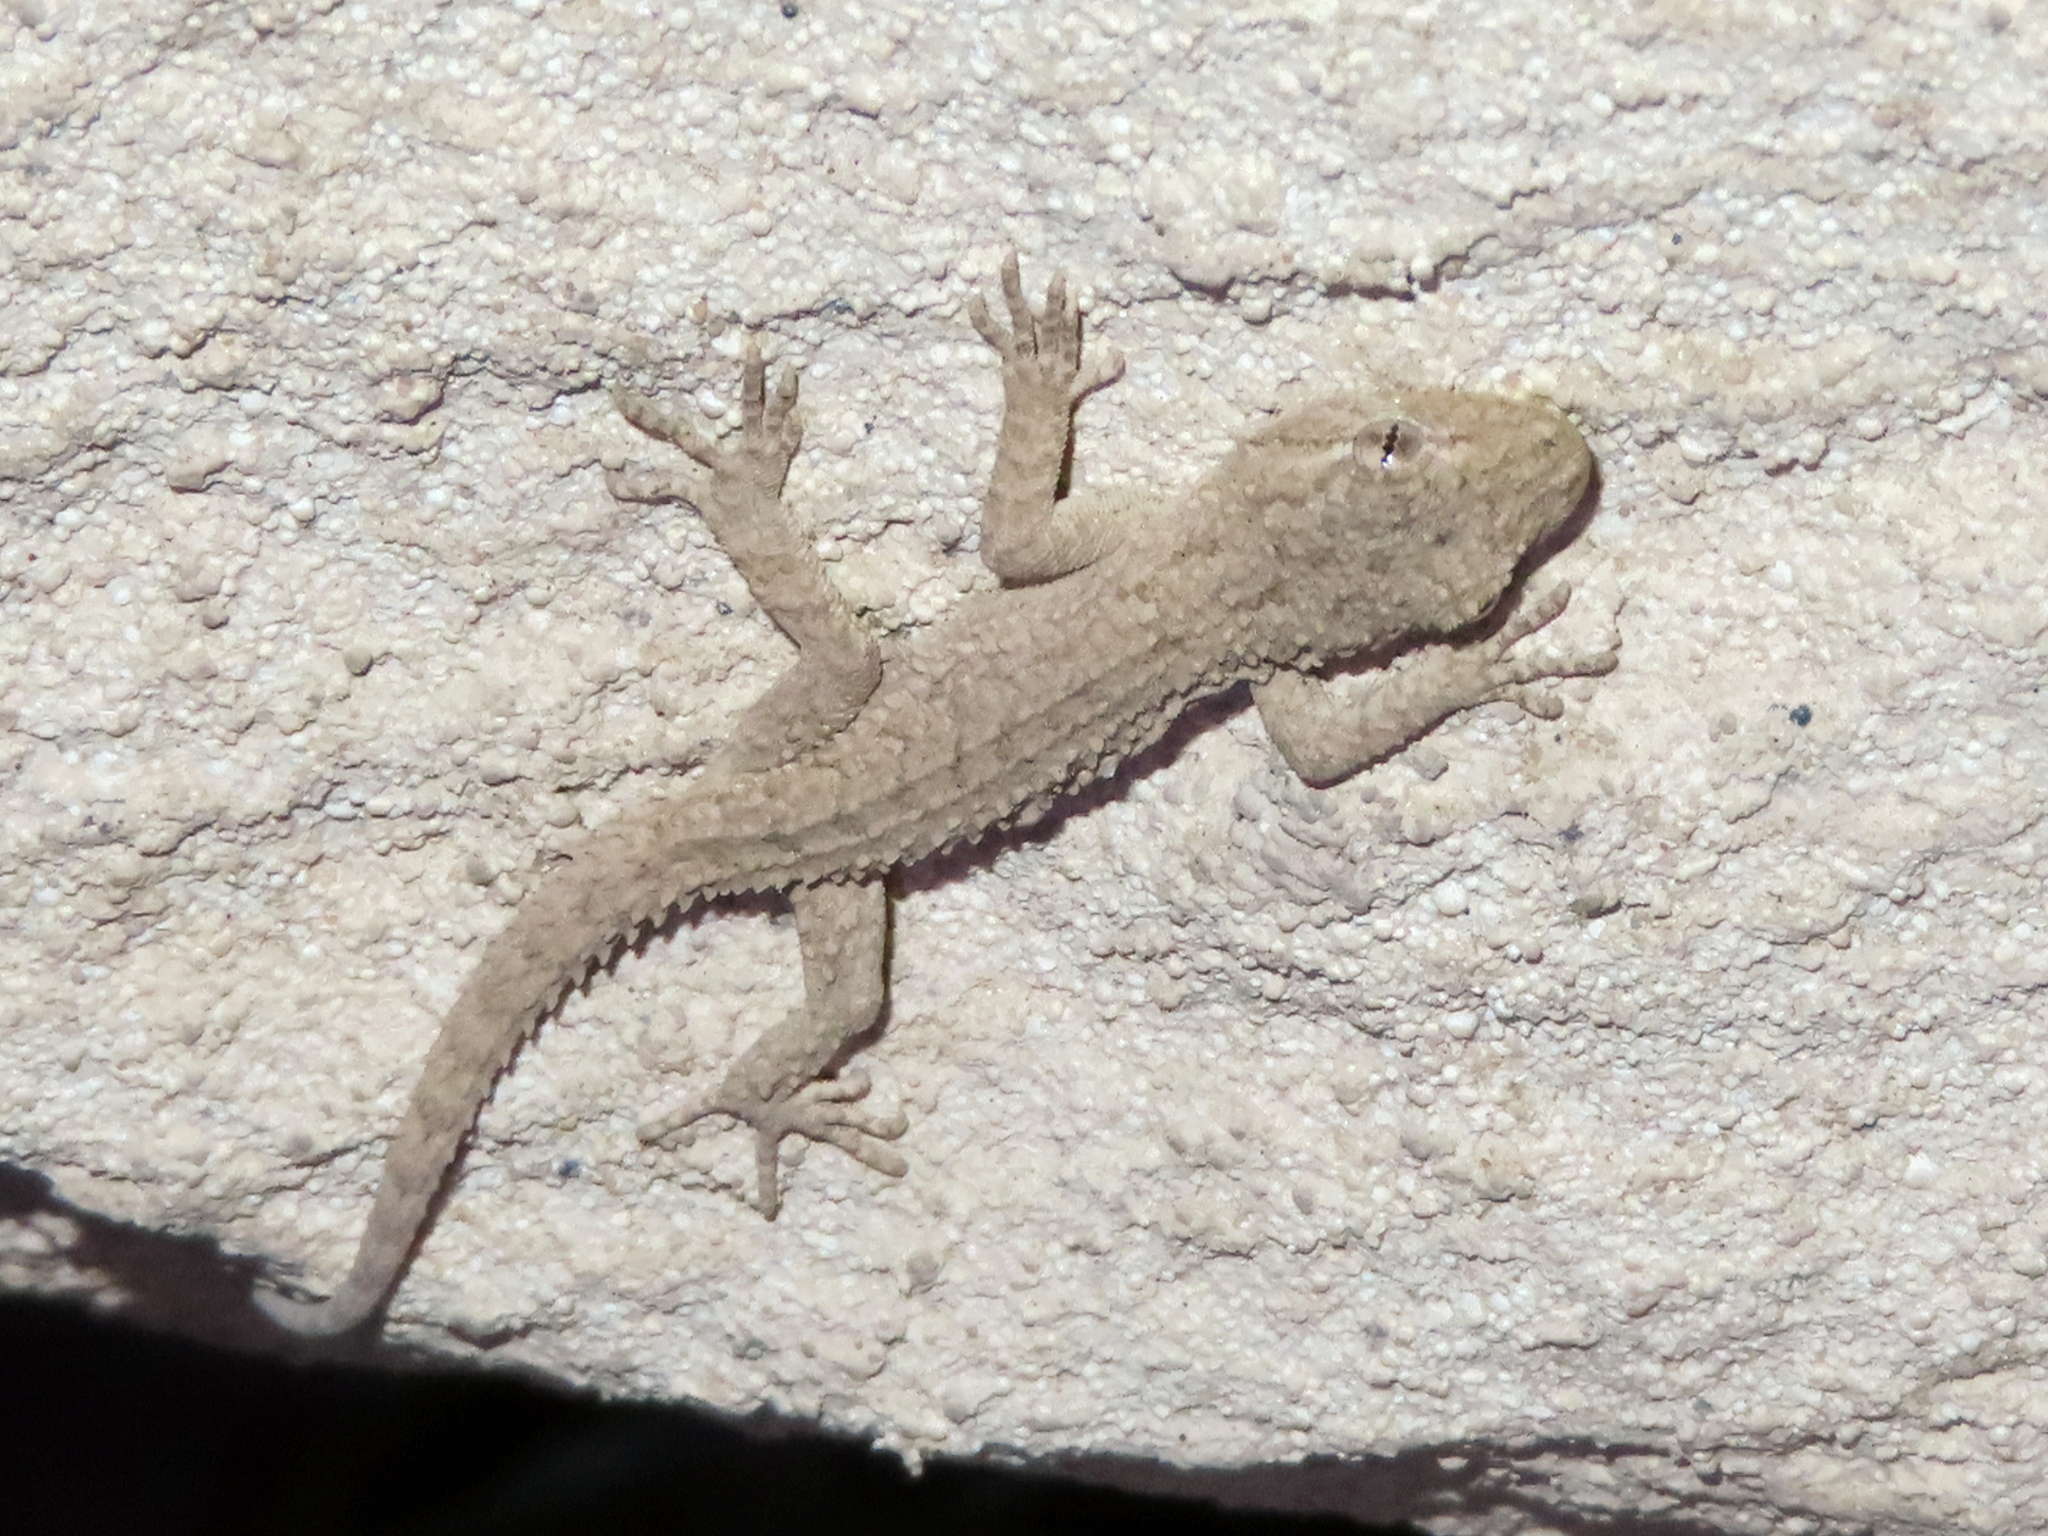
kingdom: Animalia
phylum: Chordata
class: Squamata
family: Gekkonidae
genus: Mediodactylus
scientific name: Mediodactylus russowii
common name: Grey thin-toed gecko
